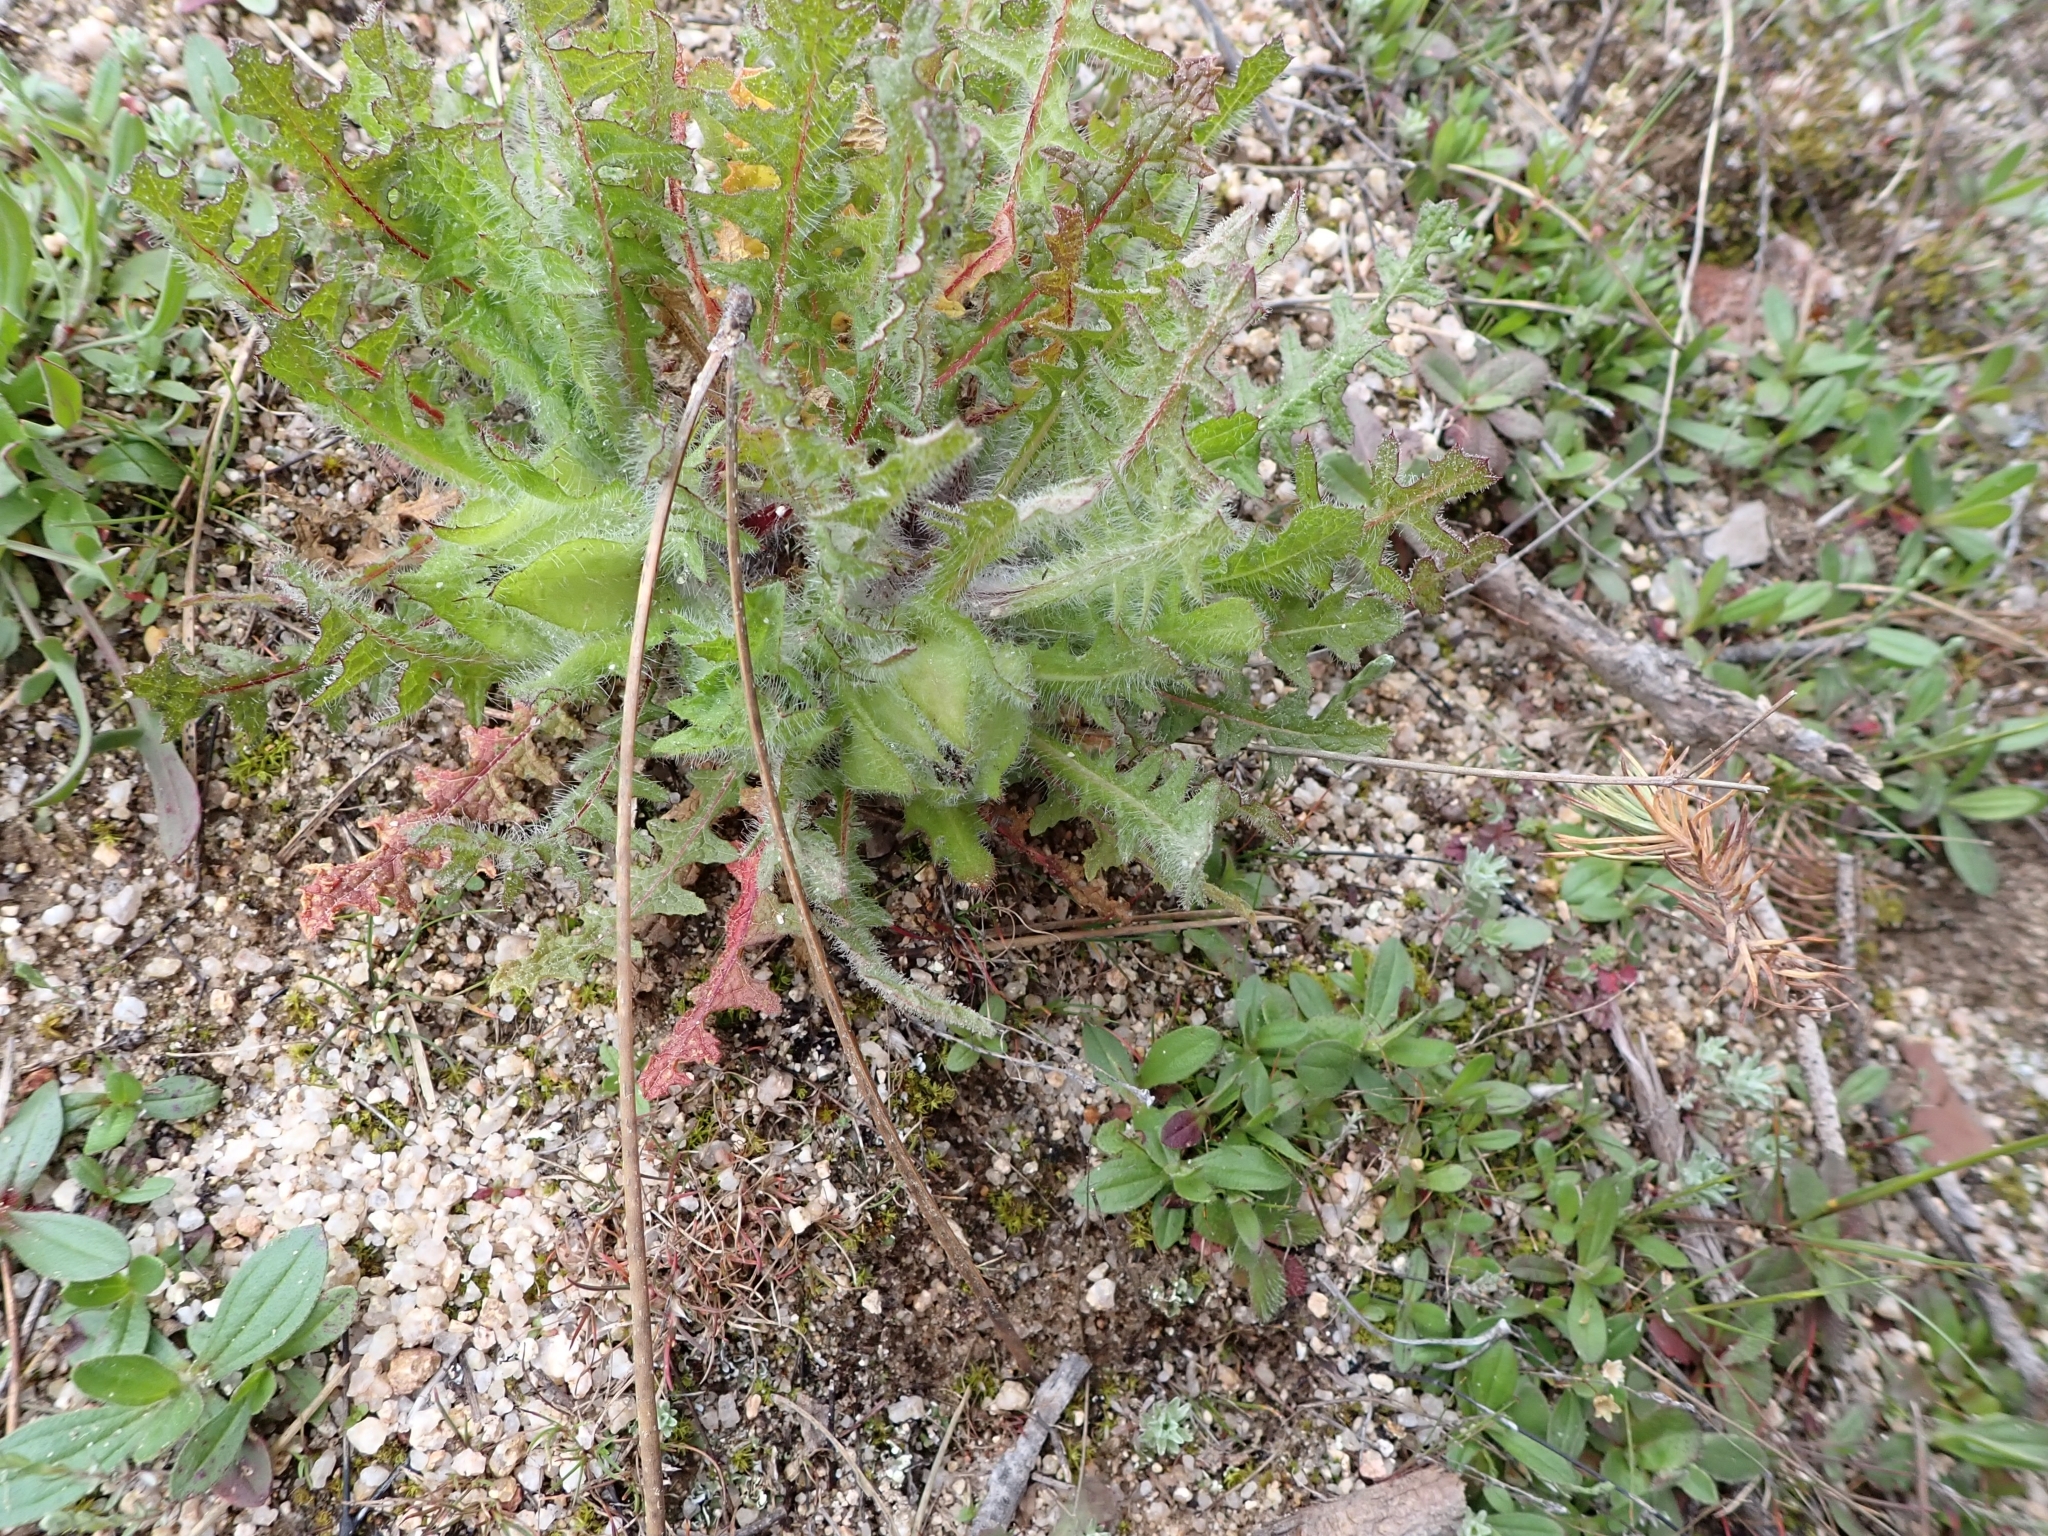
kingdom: Plantae
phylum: Tracheophyta
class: Magnoliopsida
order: Asterales
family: Asteraceae
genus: Centaurea
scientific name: Centaurea benedicta
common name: Blessed thistle
